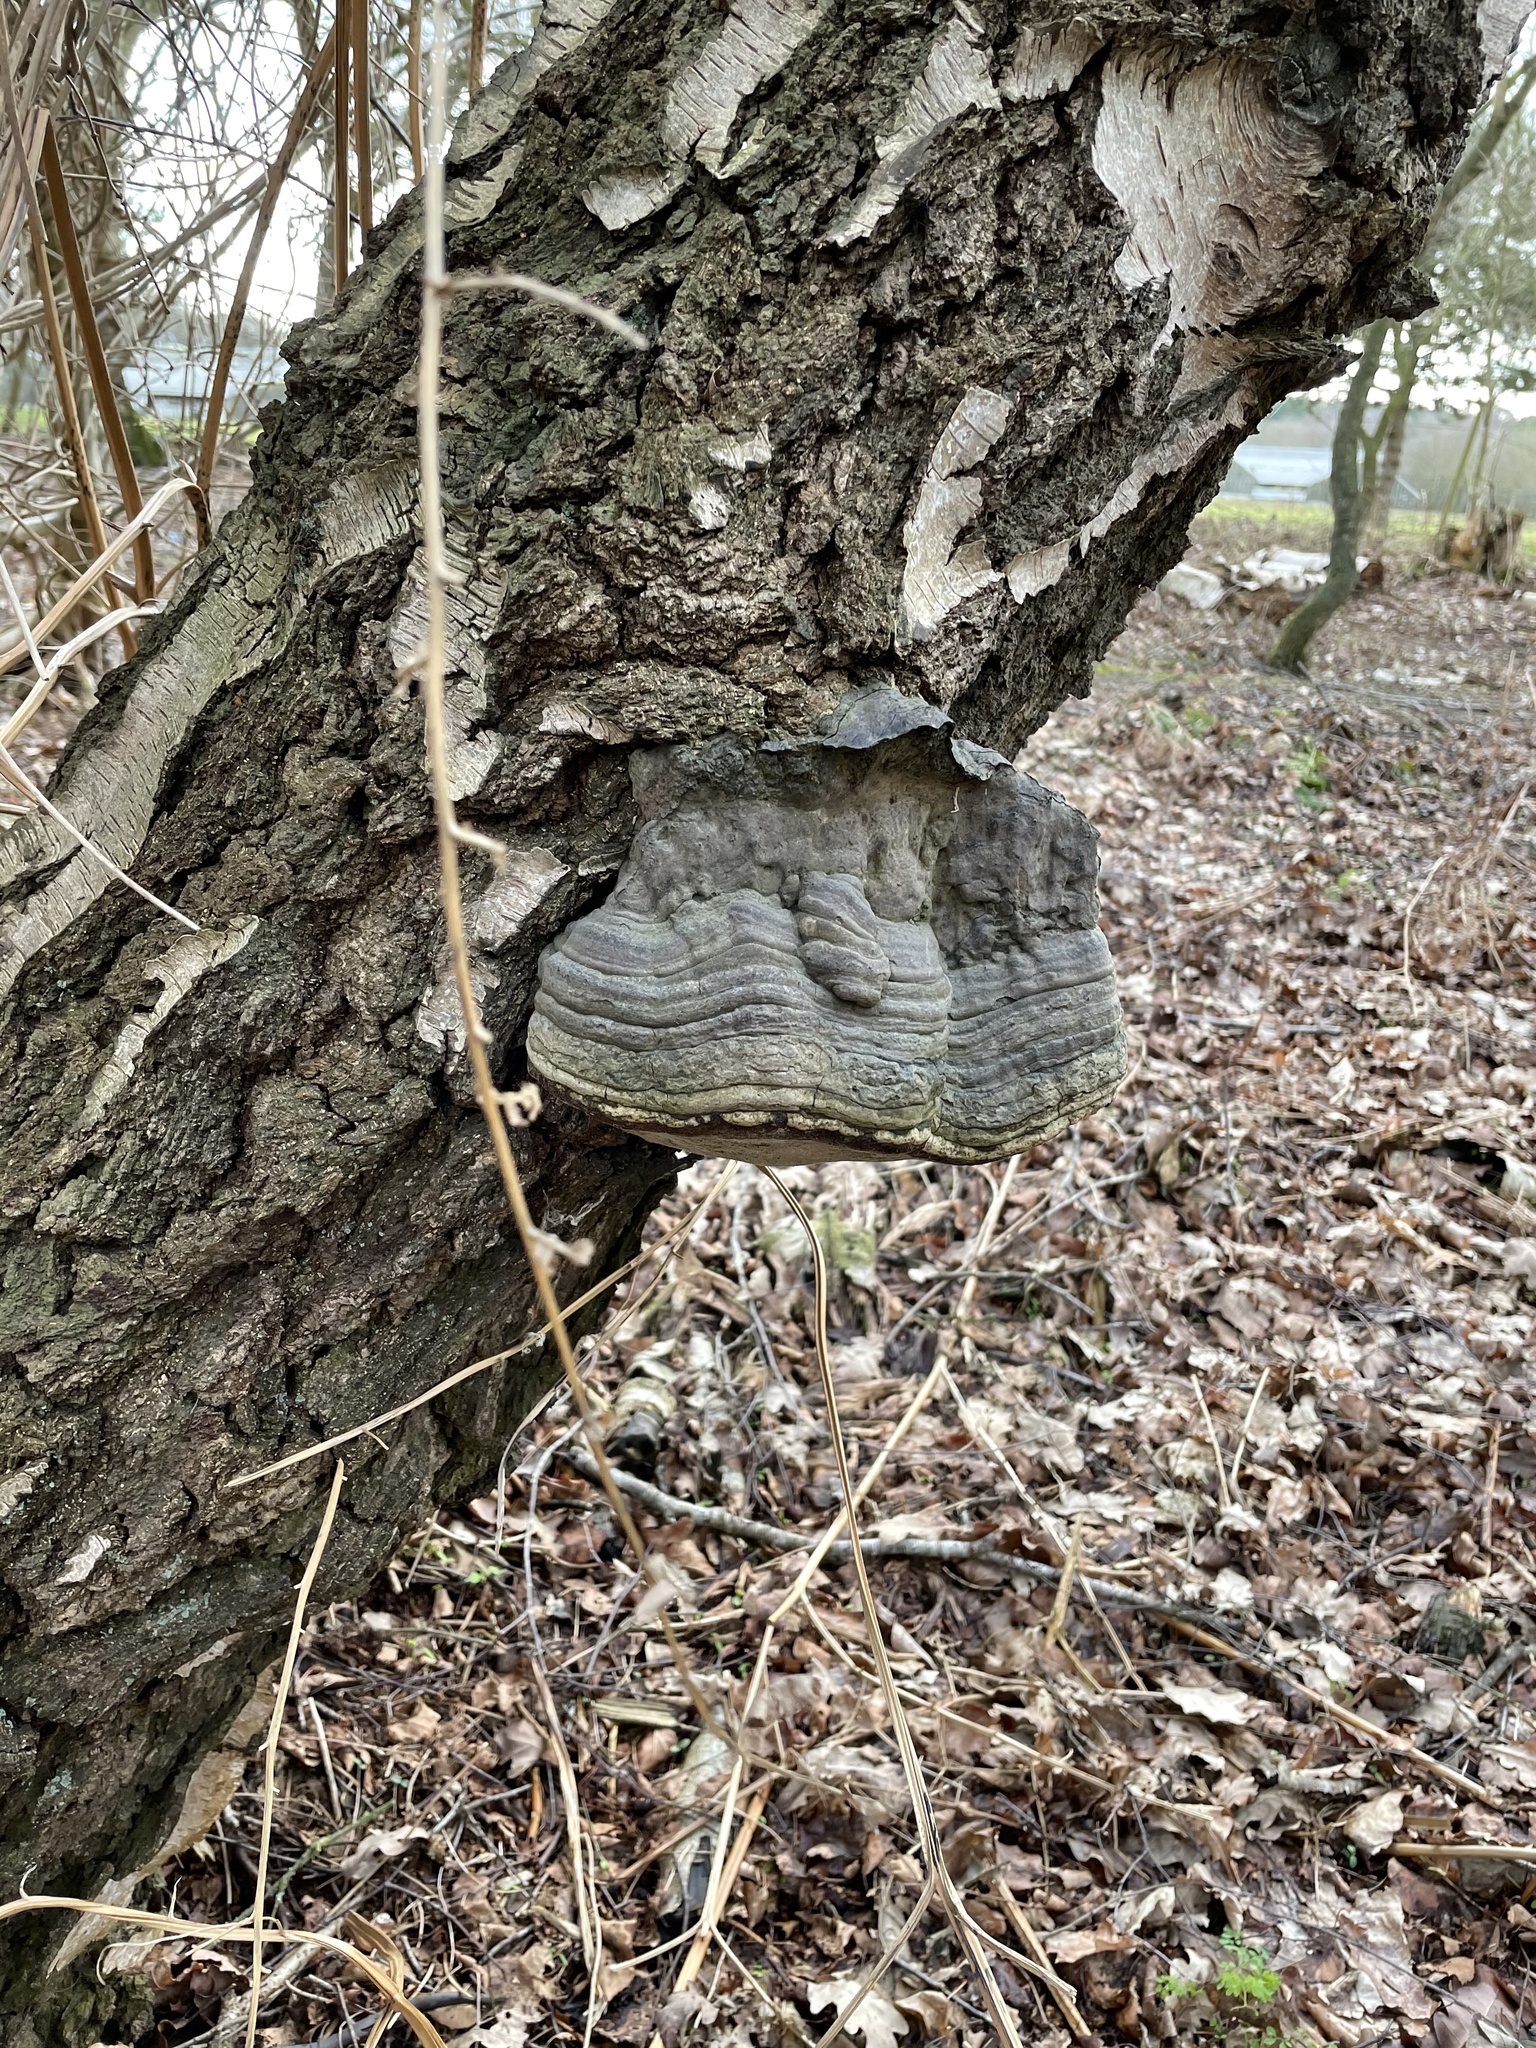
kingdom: Fungi
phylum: Basidiomycota
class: Agaricomycetes
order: Polyporales
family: Polyporaceae
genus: Fomes
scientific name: Fomes fomentarius
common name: Hoof fungus
